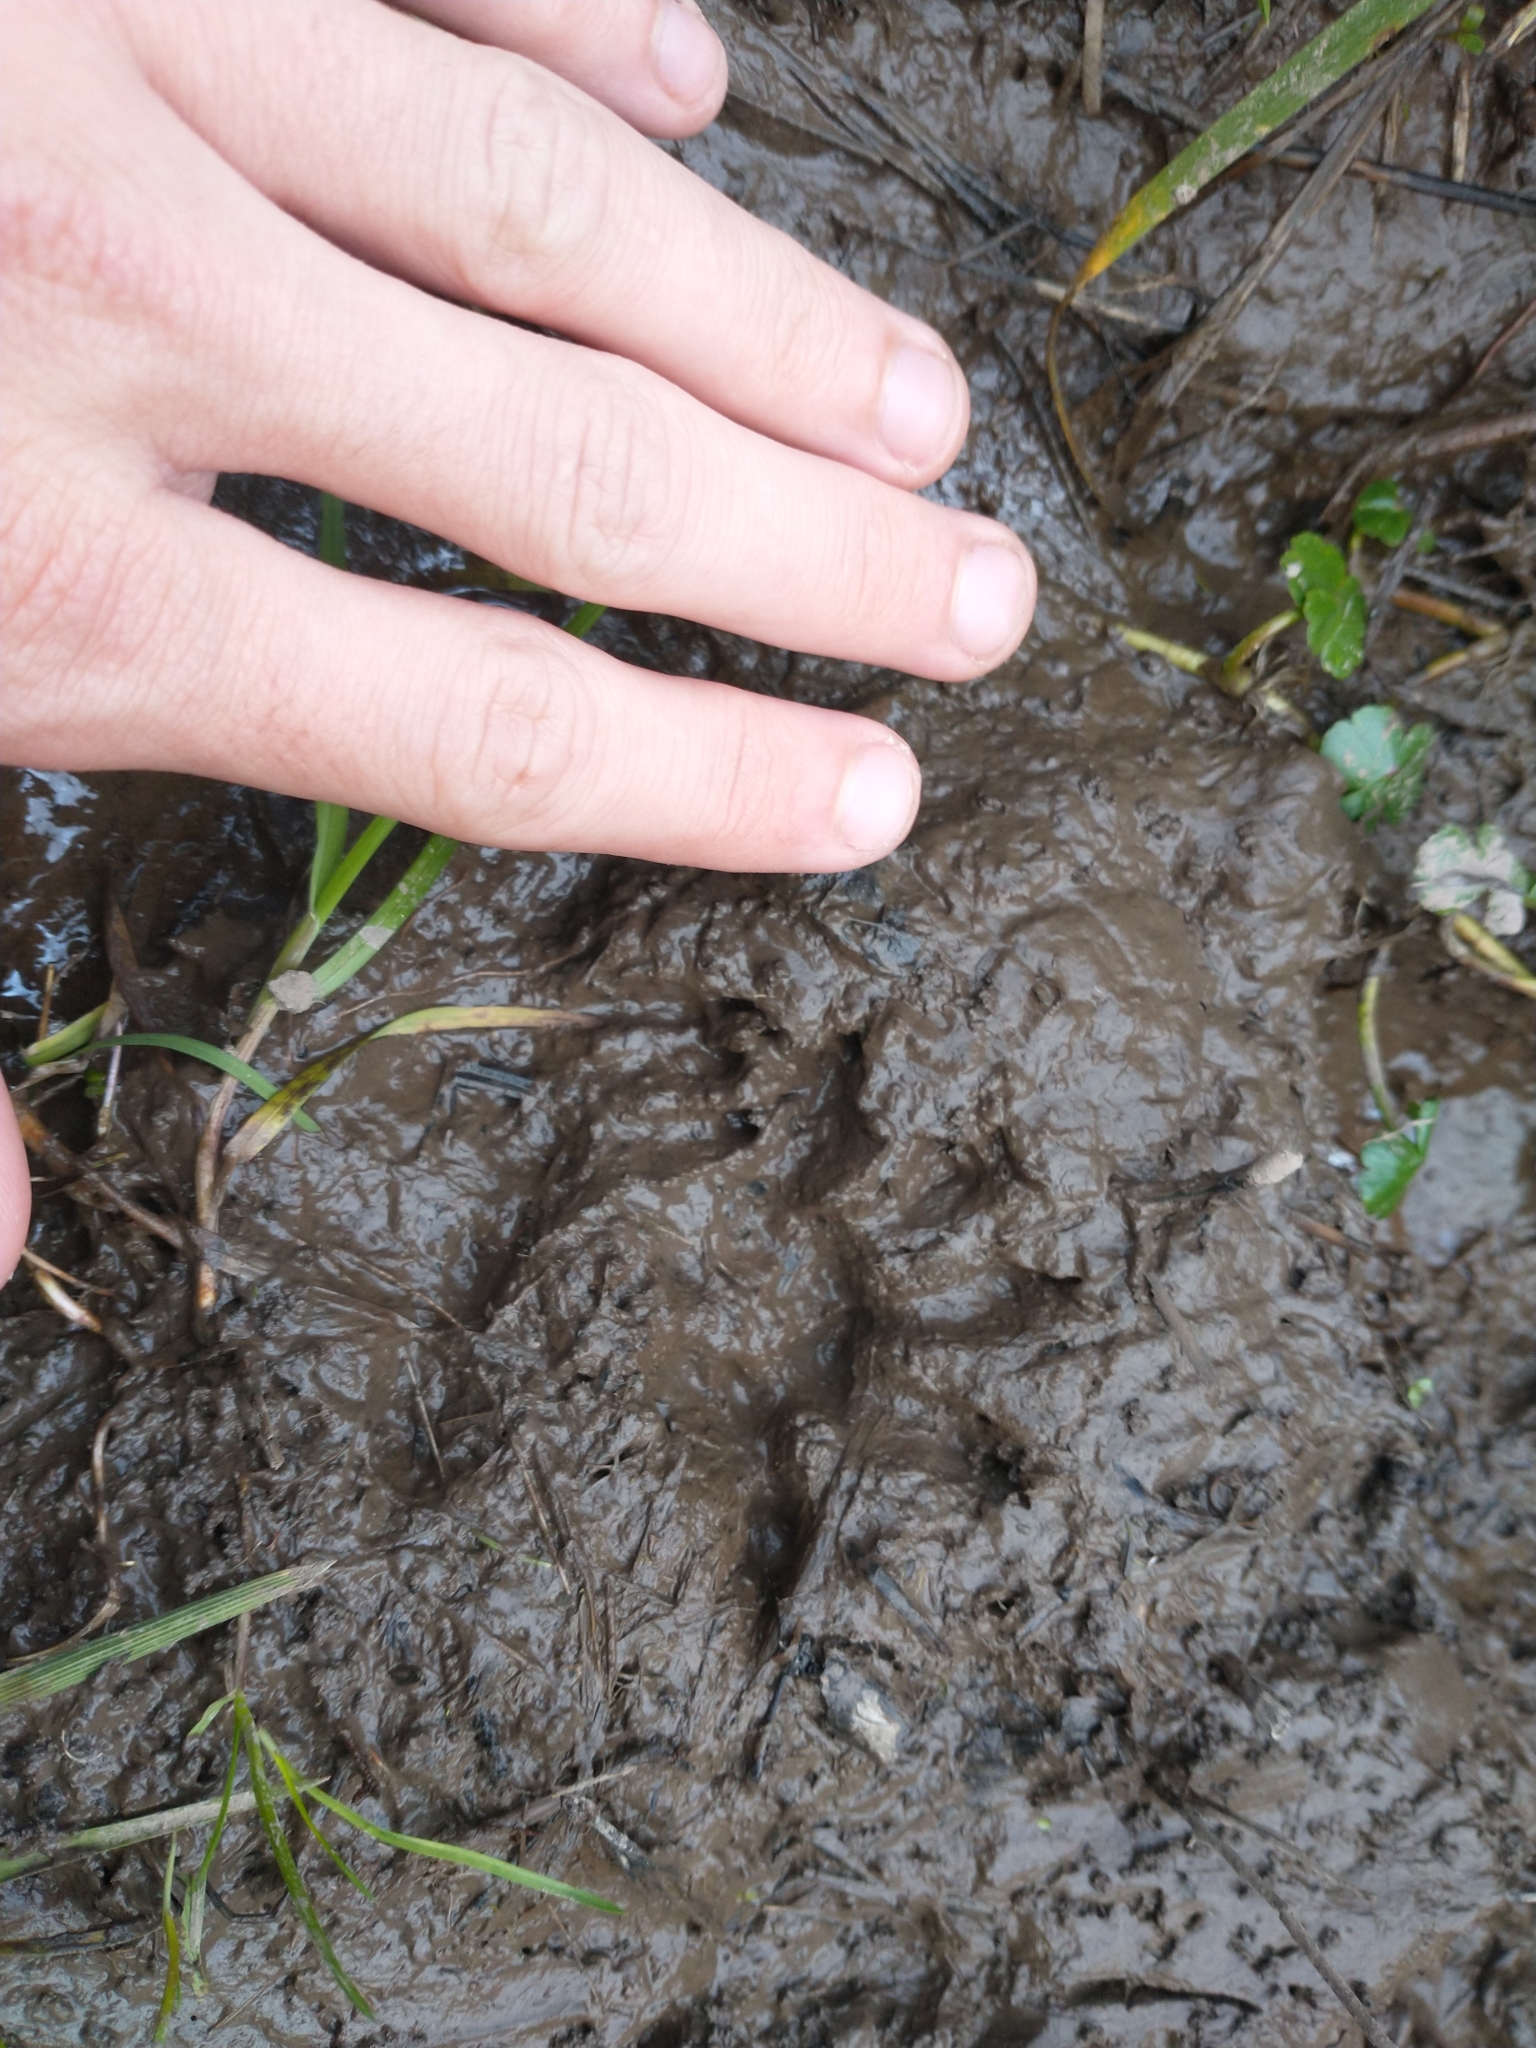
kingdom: Animalia
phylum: Chordata
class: Mammalia
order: Carnivora
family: Procyonidae
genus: Procyon
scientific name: Procyon lotor
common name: Raccoon
